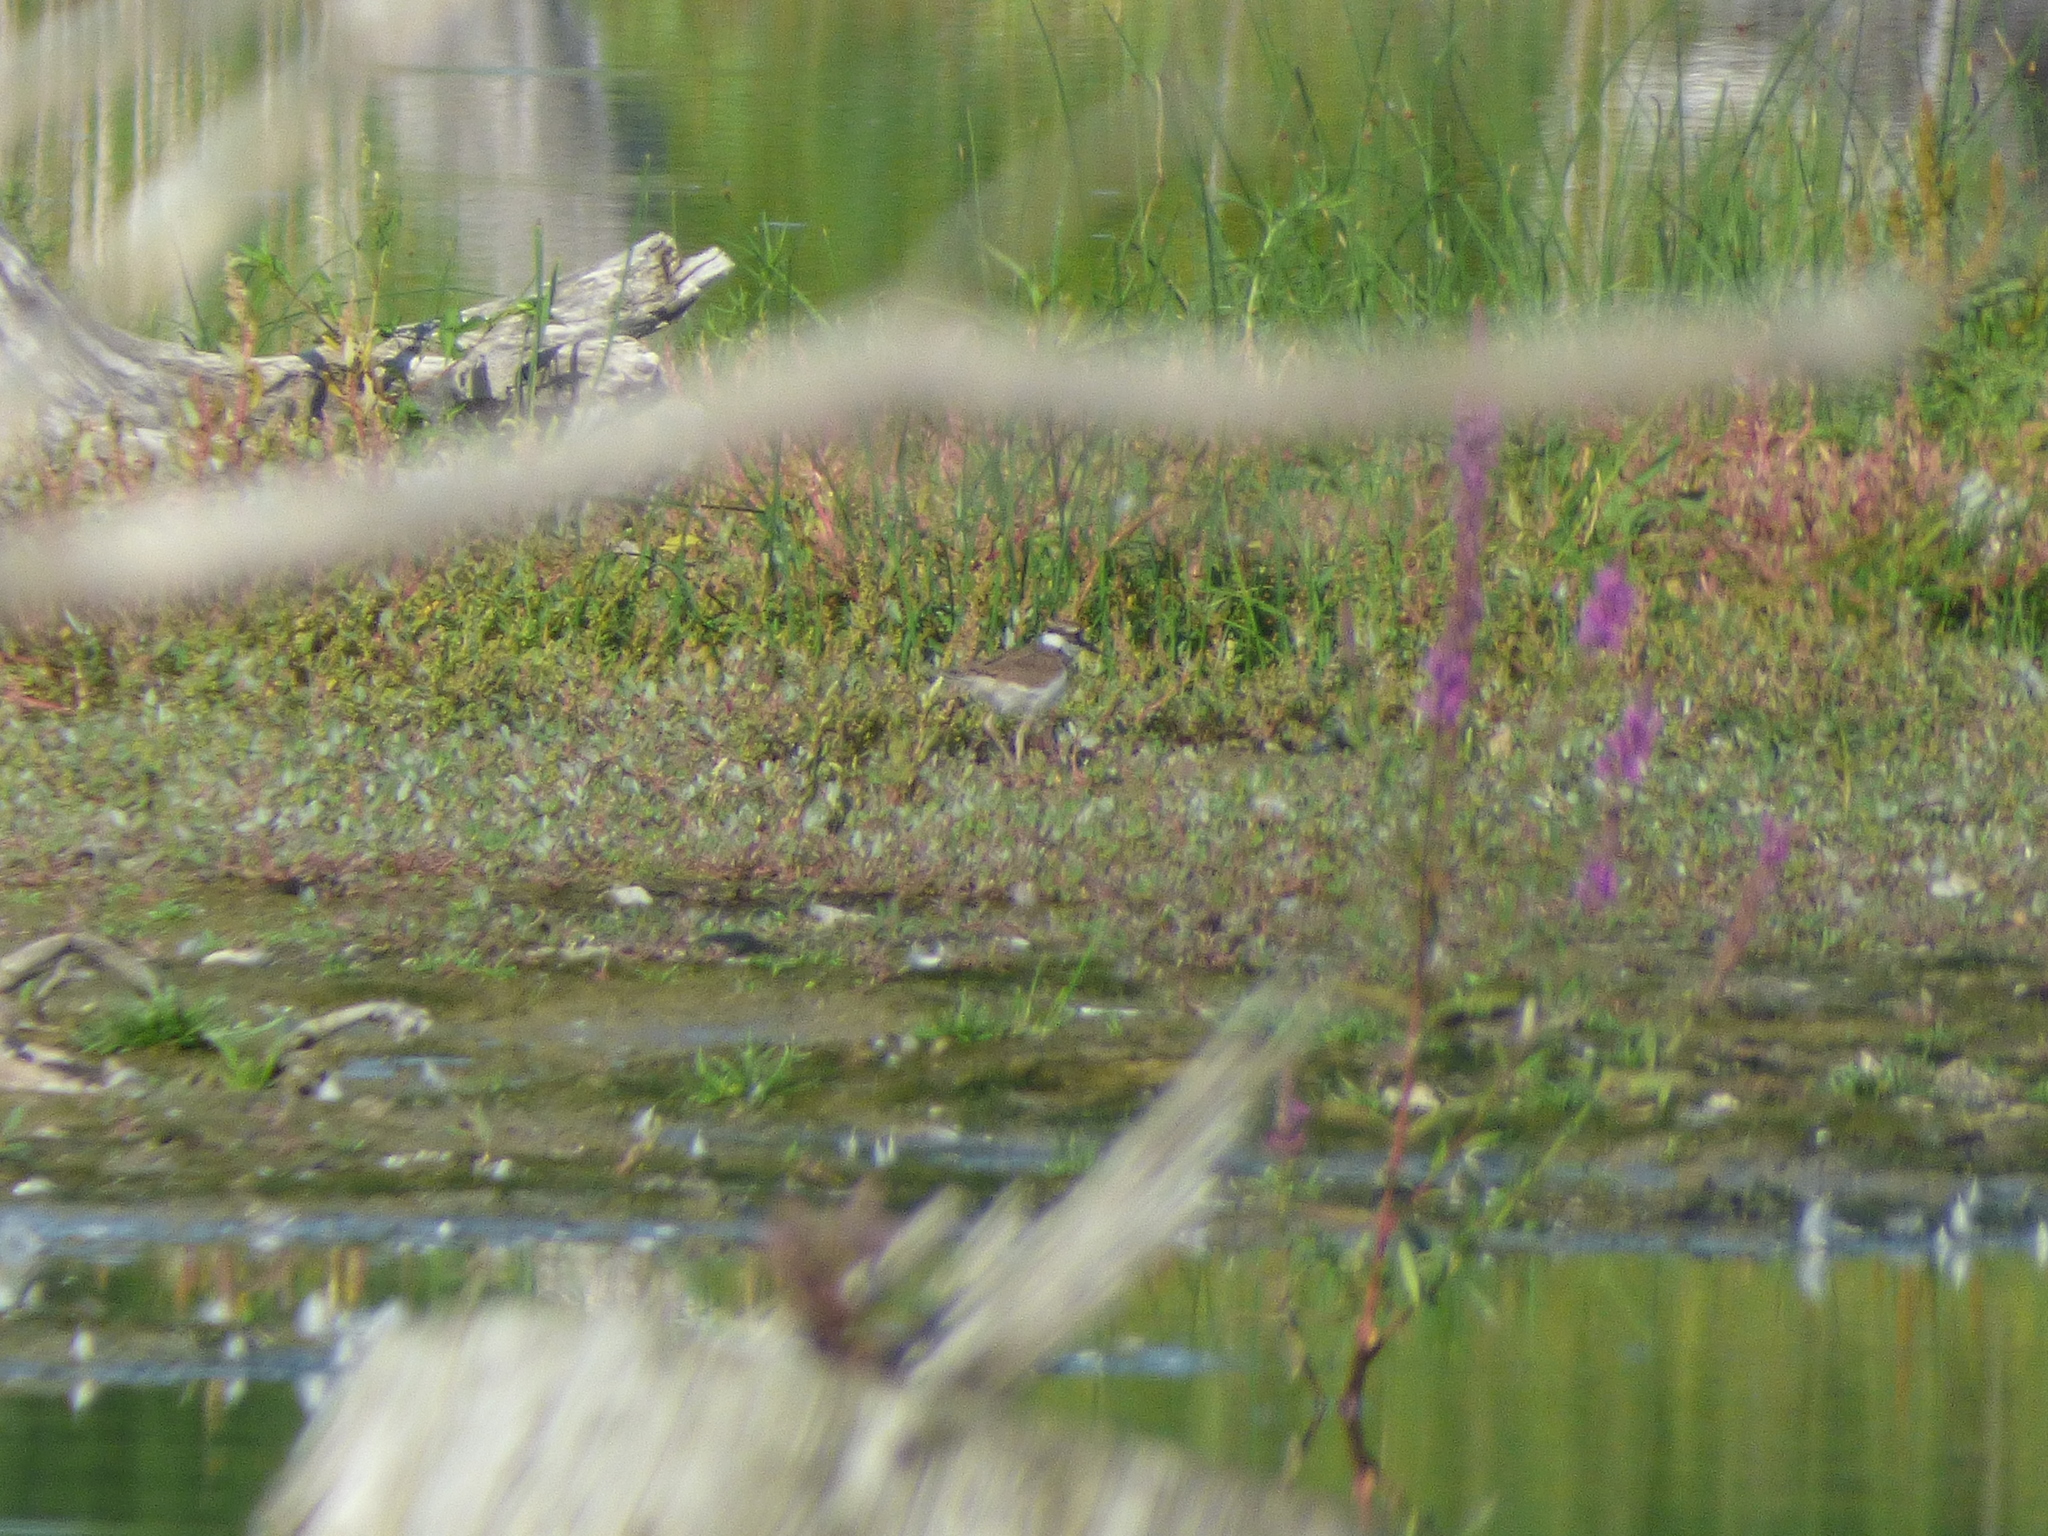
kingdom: Animalia
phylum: Chordata
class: Aves
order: Charadriiformes
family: Charadriidae
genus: Charadrius
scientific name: Charadrius vociferus
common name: Killdeer
